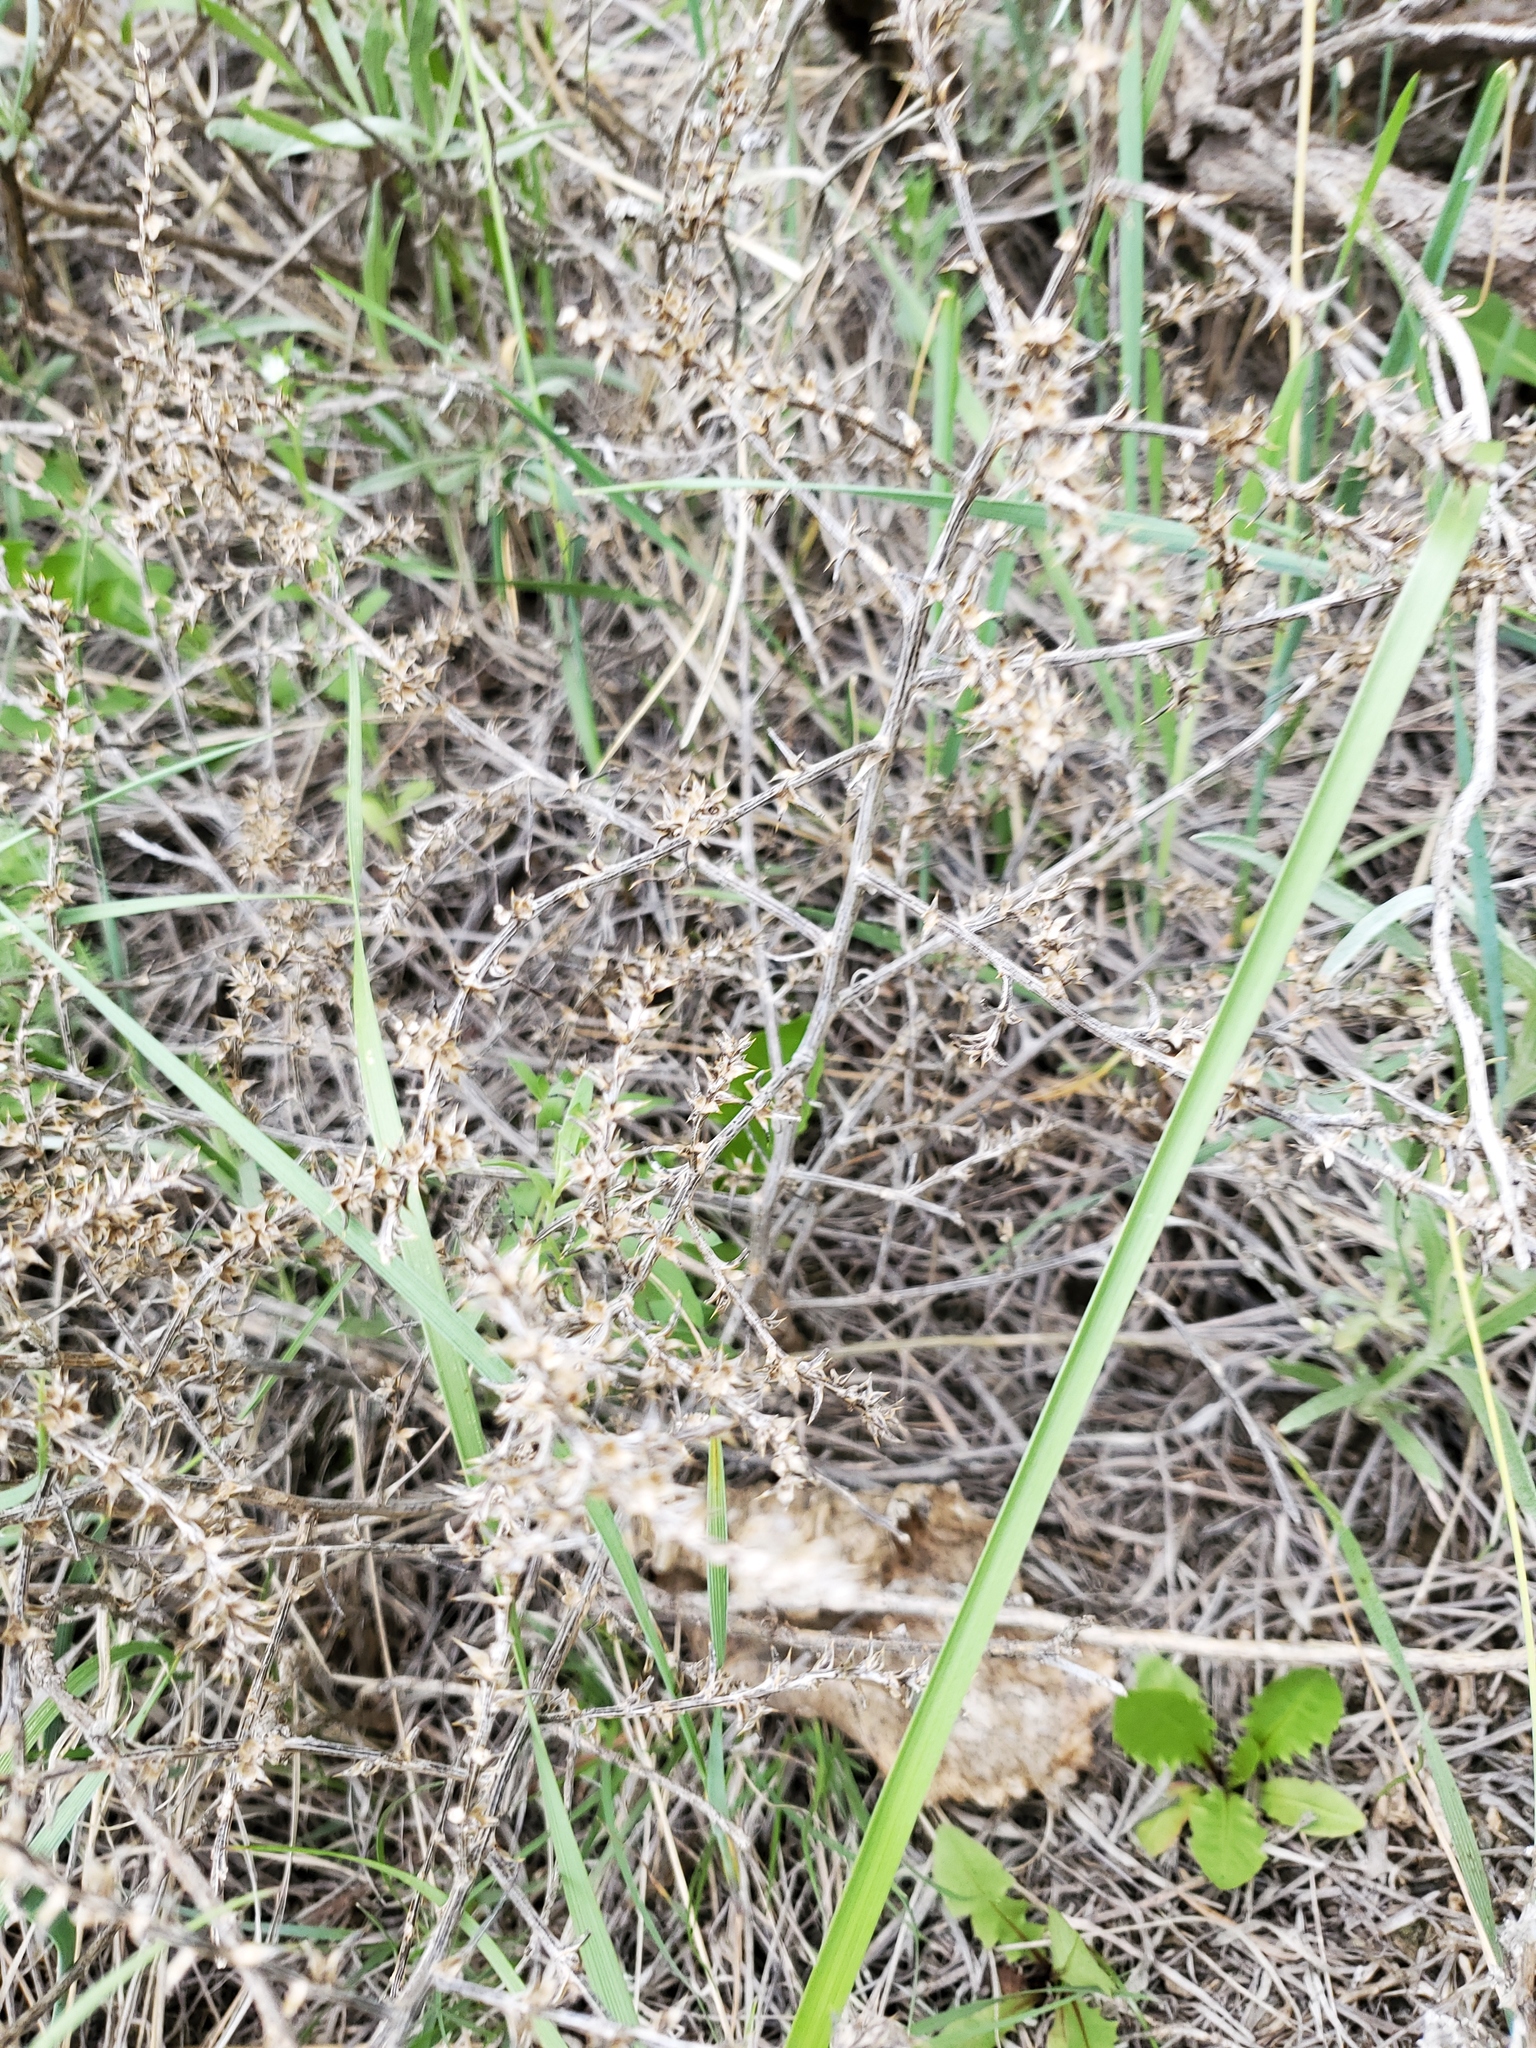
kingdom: Plantae
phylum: Tracheophyta
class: Magnoliopsida
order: Caryophyllales
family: Amaranthaceae
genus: Salsola
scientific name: Salsola tragus
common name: Prickly russian thistle
